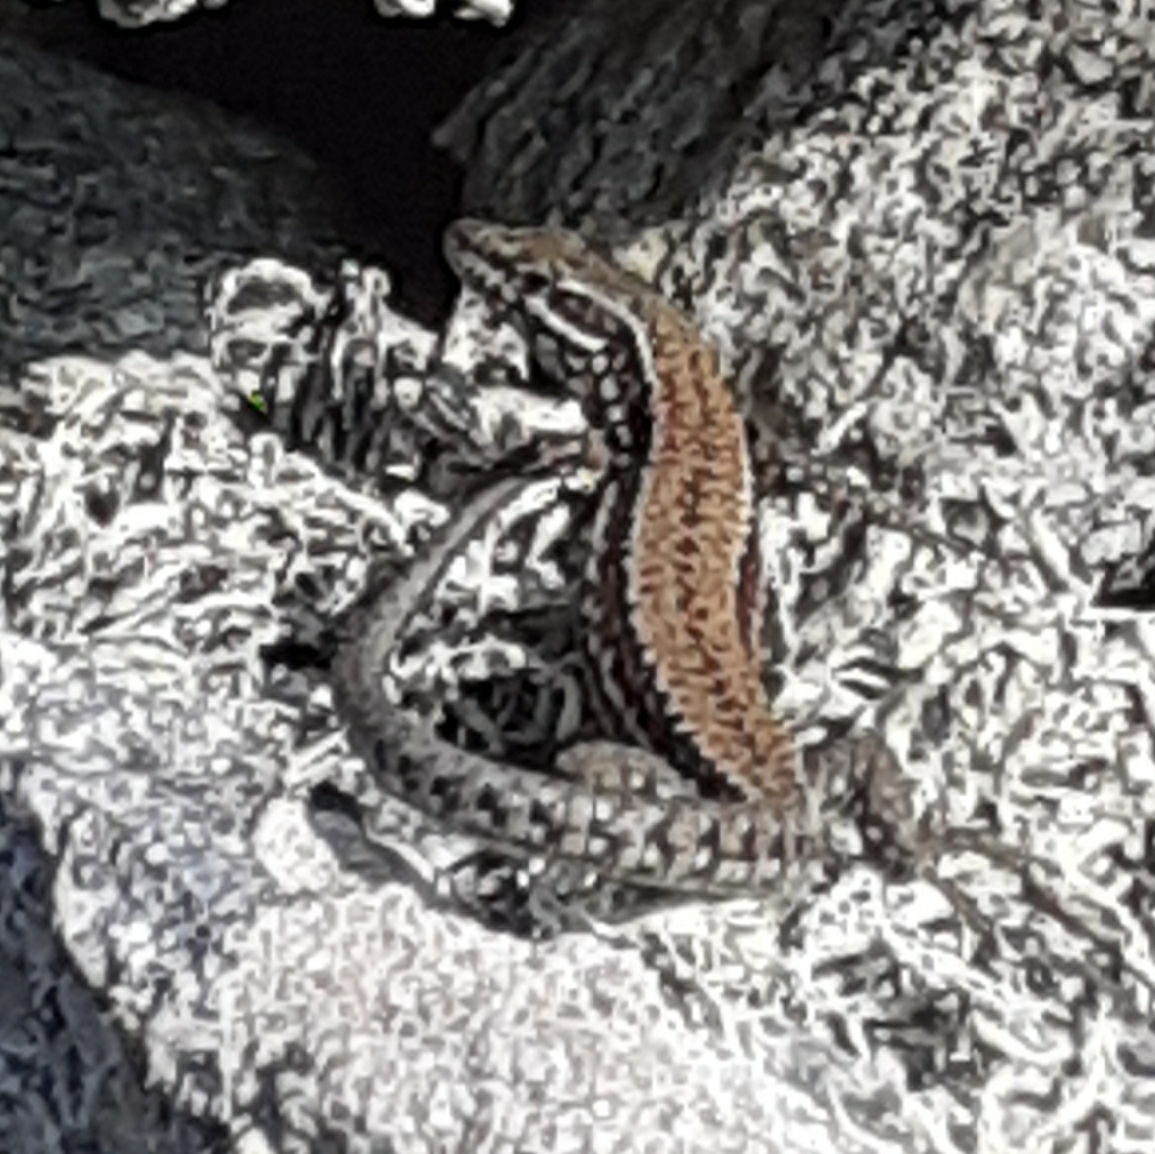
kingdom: Animalia
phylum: Chordata
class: Squamata
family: Lacertidae
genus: Podarcis
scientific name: Podarcis muralis
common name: Common wall lizard
